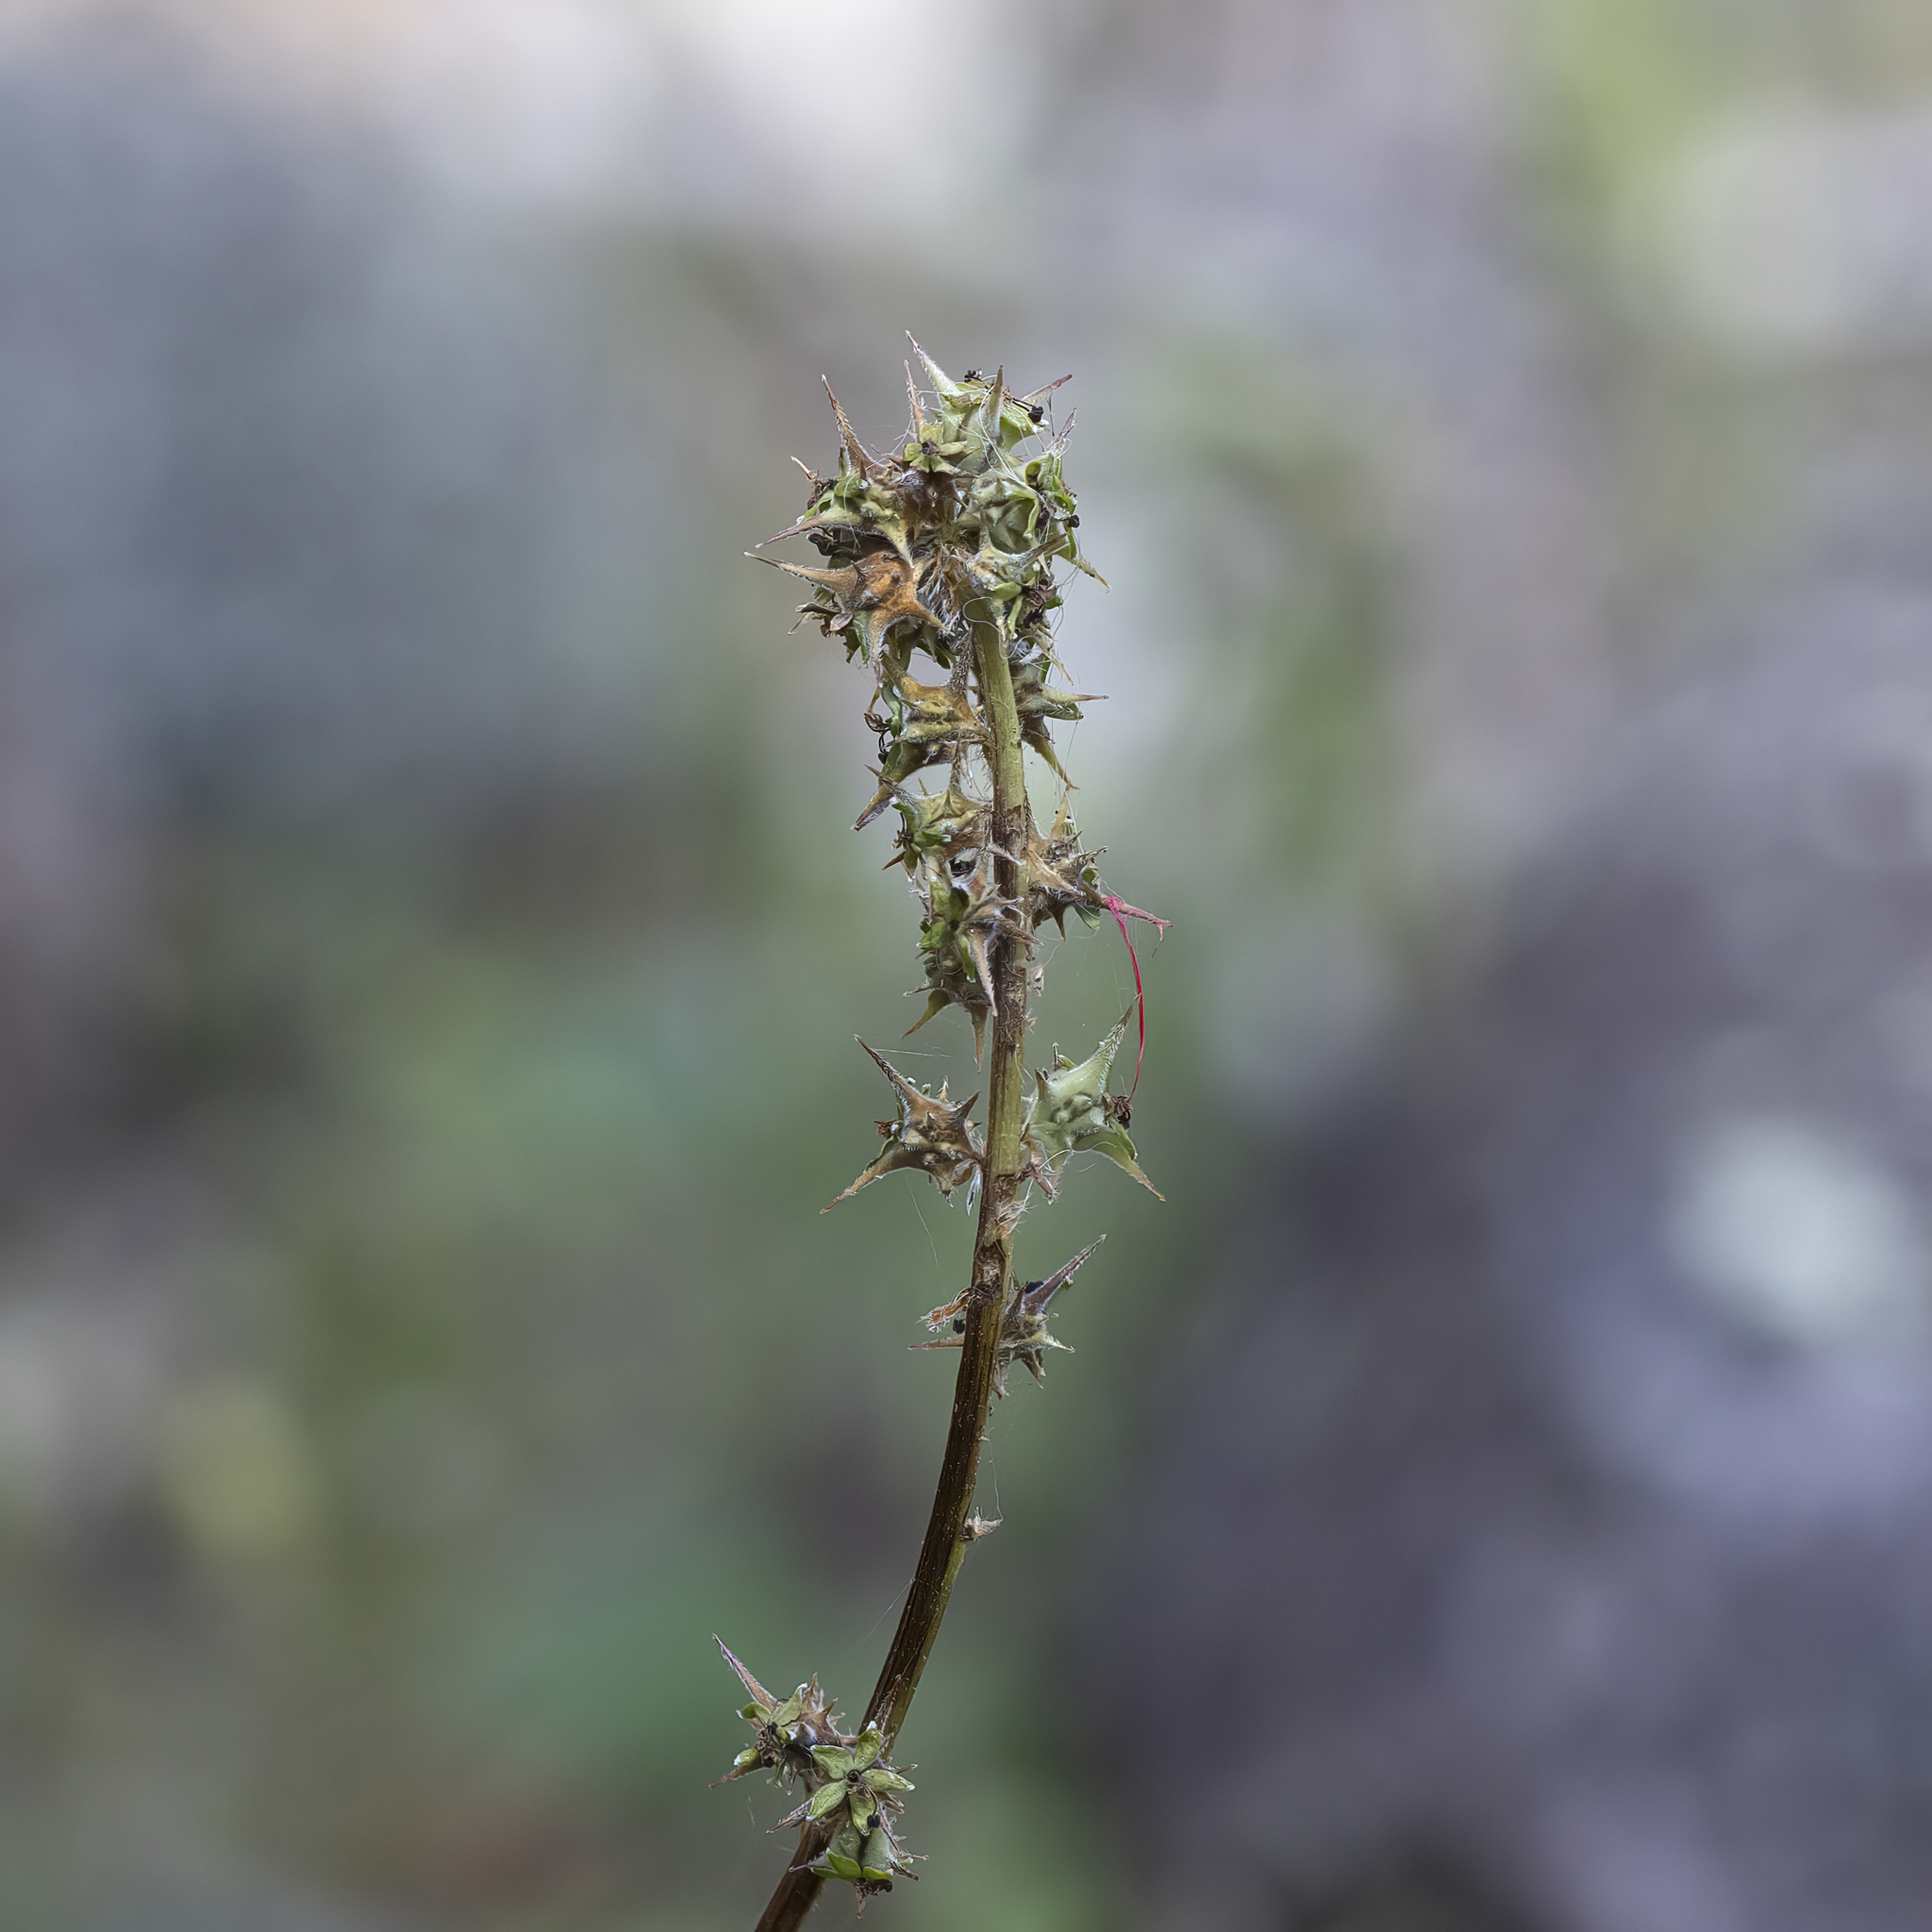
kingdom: Plantae
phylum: Tracheophyta
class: Magnoliopsida
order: Rosales
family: Rosaceae
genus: Acaena
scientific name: Acaena echinata
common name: Sheepbur
